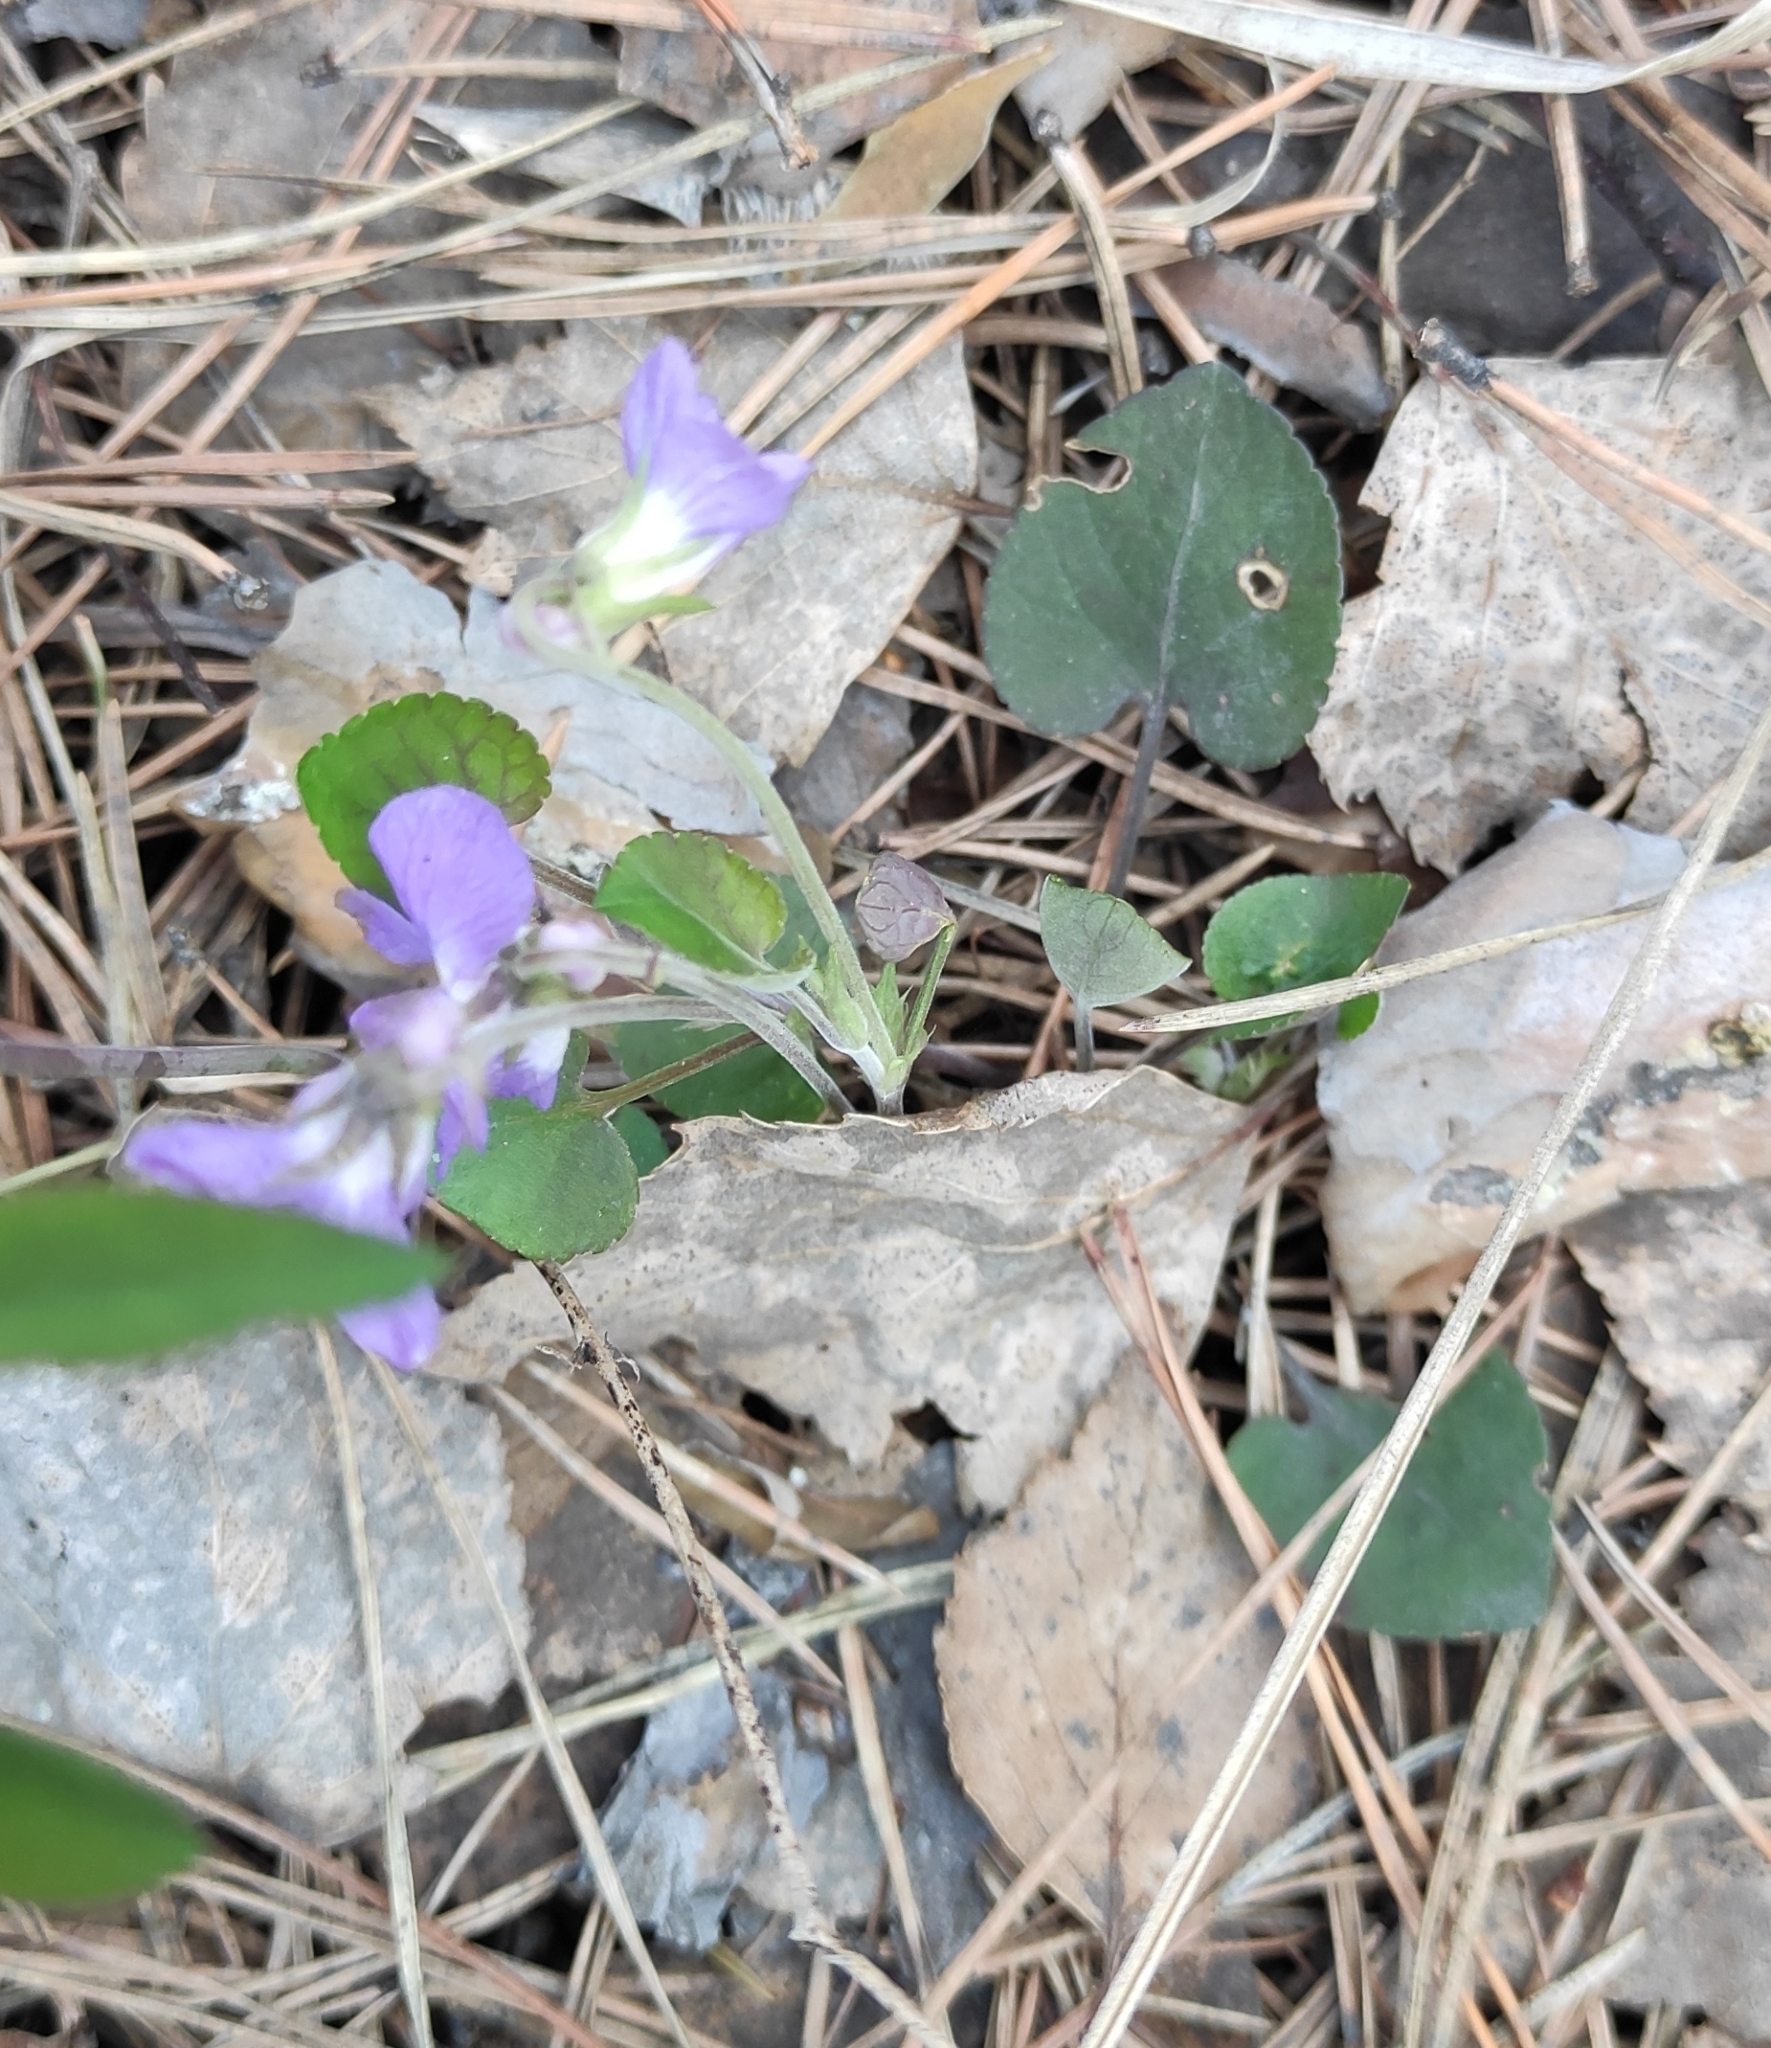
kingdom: Plantae
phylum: Tracheophyta
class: Magnoliopsida
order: Malpighiales
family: Violaceae
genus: Viola
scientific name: Viola rupestris
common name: Teesdale violet
